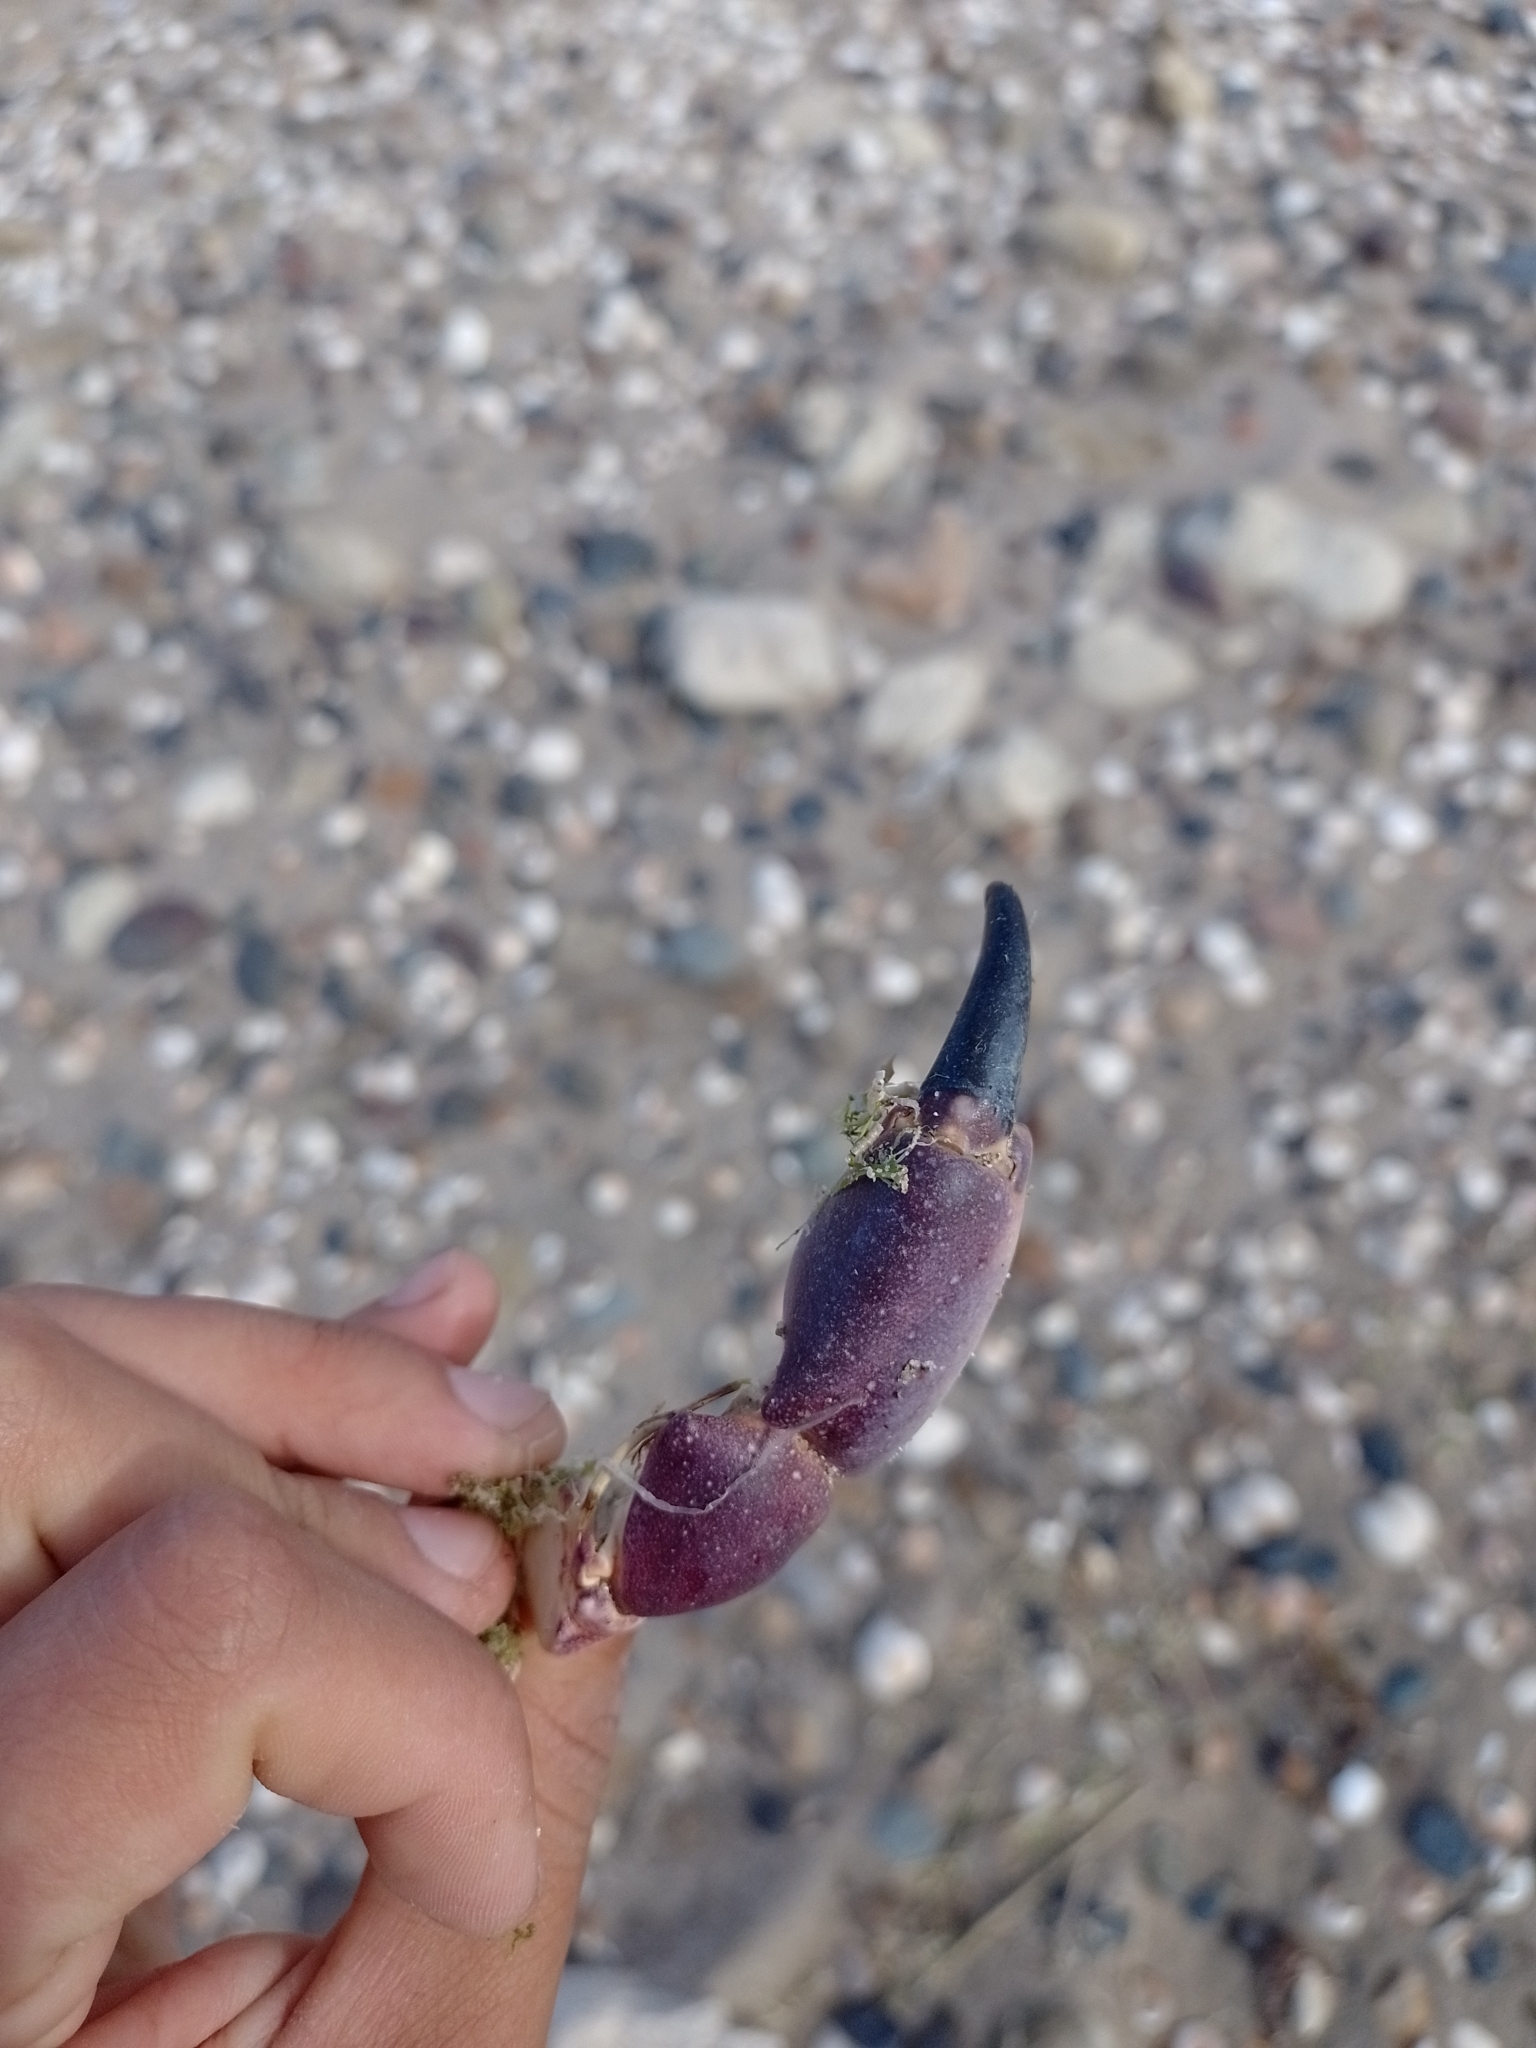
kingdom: Animalia
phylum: Arthropoda
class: Malacostraca
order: Decapoda
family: Platyxanthidae
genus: Danielethus
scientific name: Danielethus crenulatus
